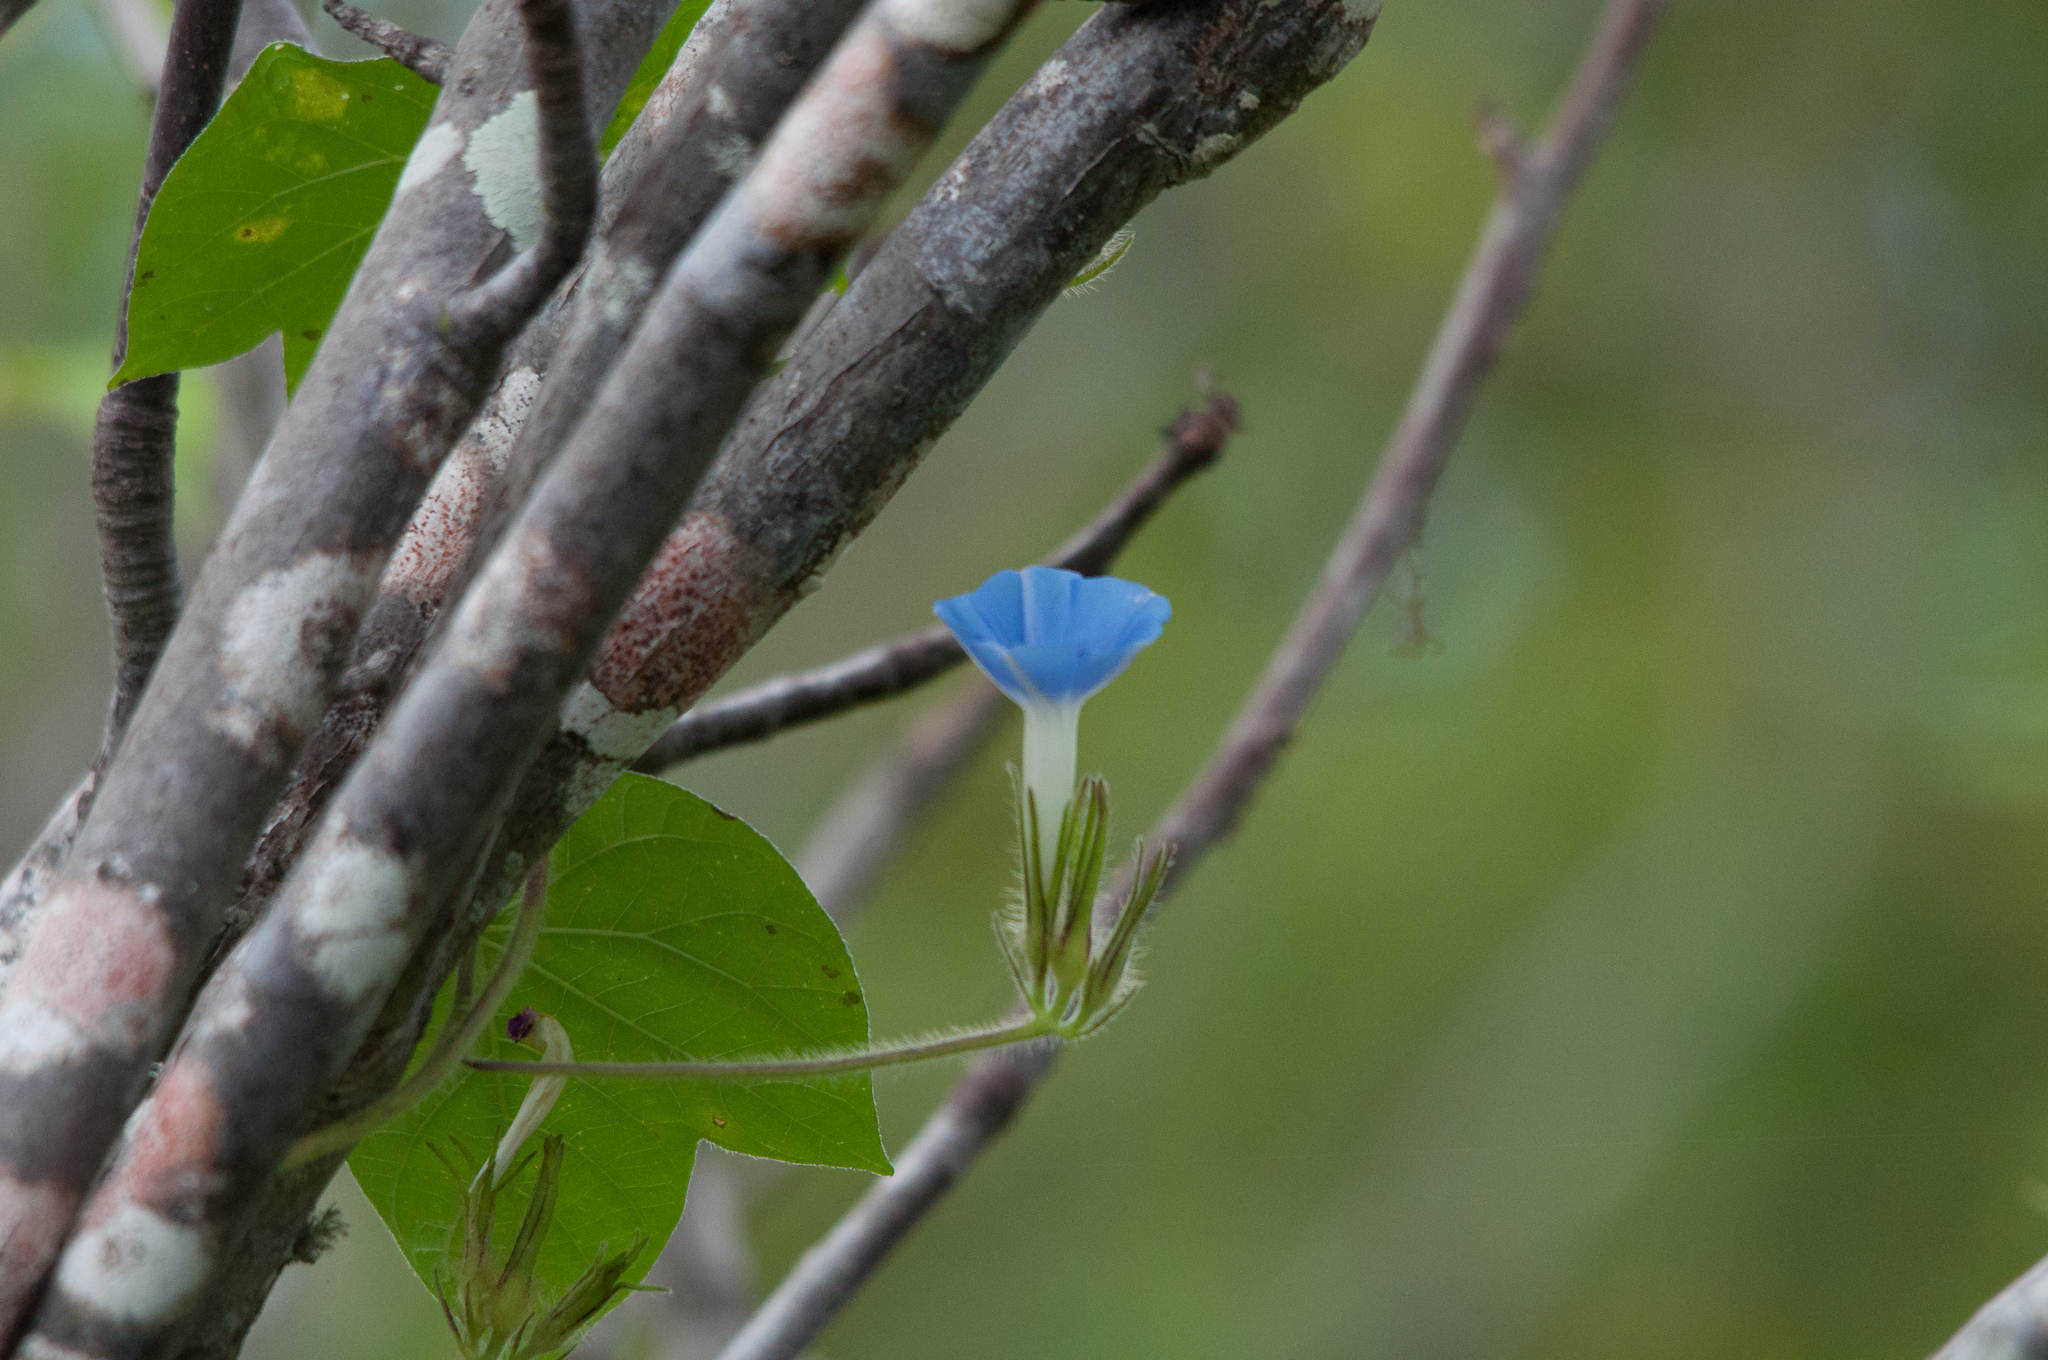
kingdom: Plantae
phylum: Tracheophyta
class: Magnoliopsida
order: Solanales
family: Convolvulaceae
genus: Ipomoea
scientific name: Ipomoea nil
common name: Japanese morning-glory
